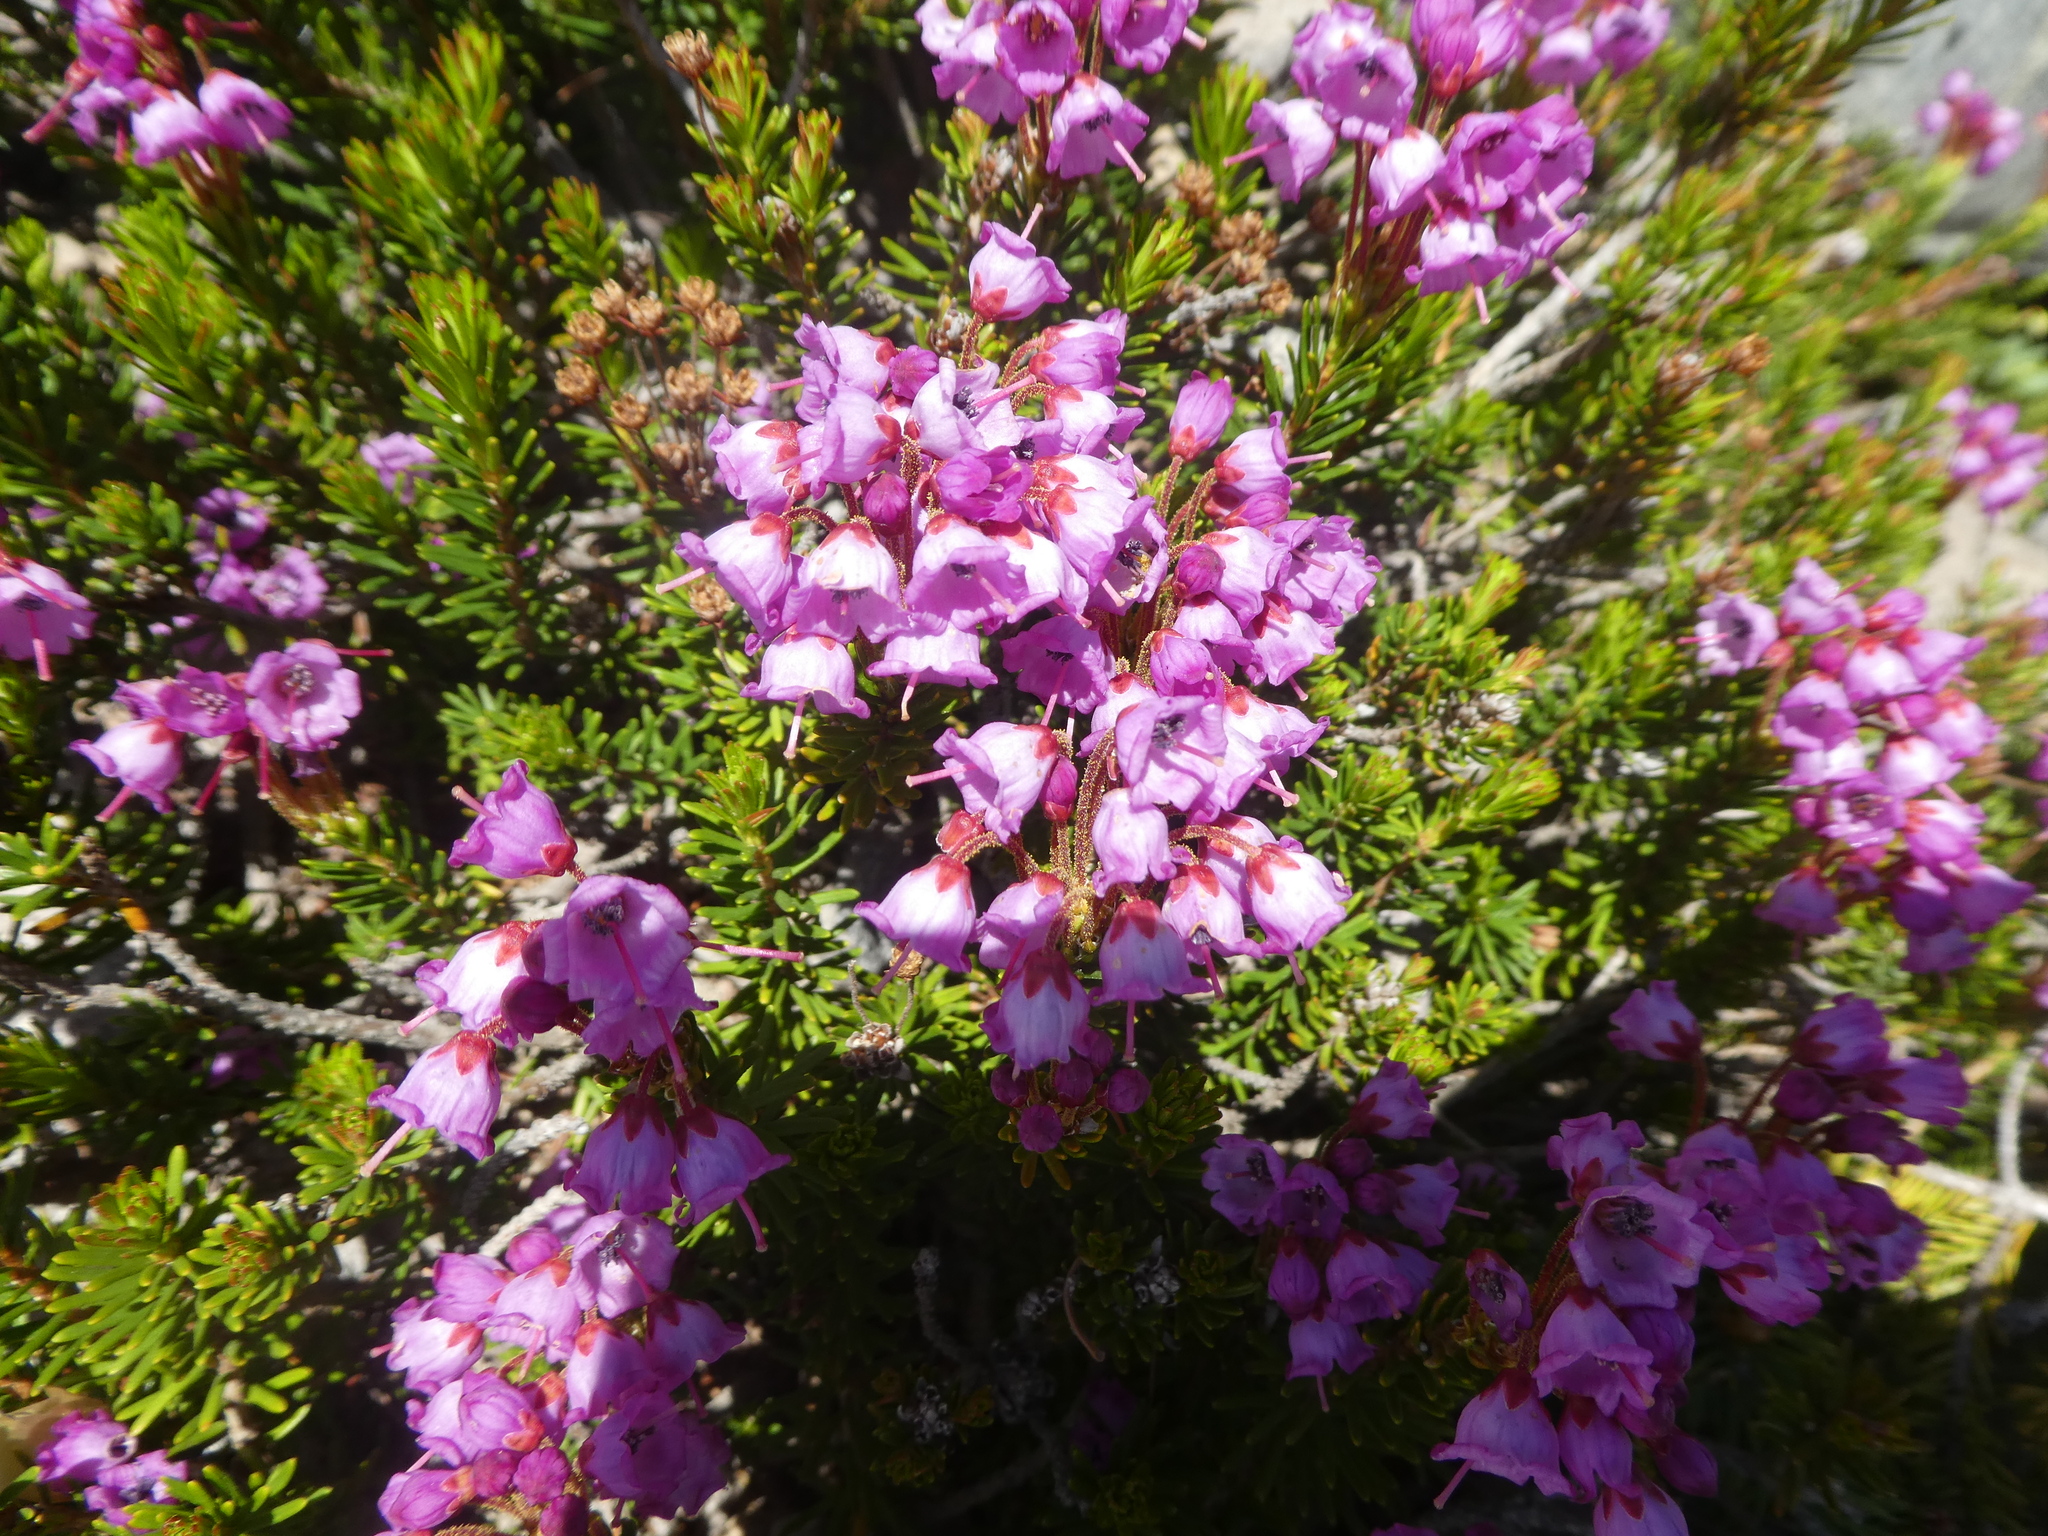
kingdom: Plantae
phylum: Tracheophyta
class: Magnoliopsida
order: Ericales
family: Ericaceae
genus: Phyllodoce
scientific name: Phyllodoce empetriformis
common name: Pink mountain heather
